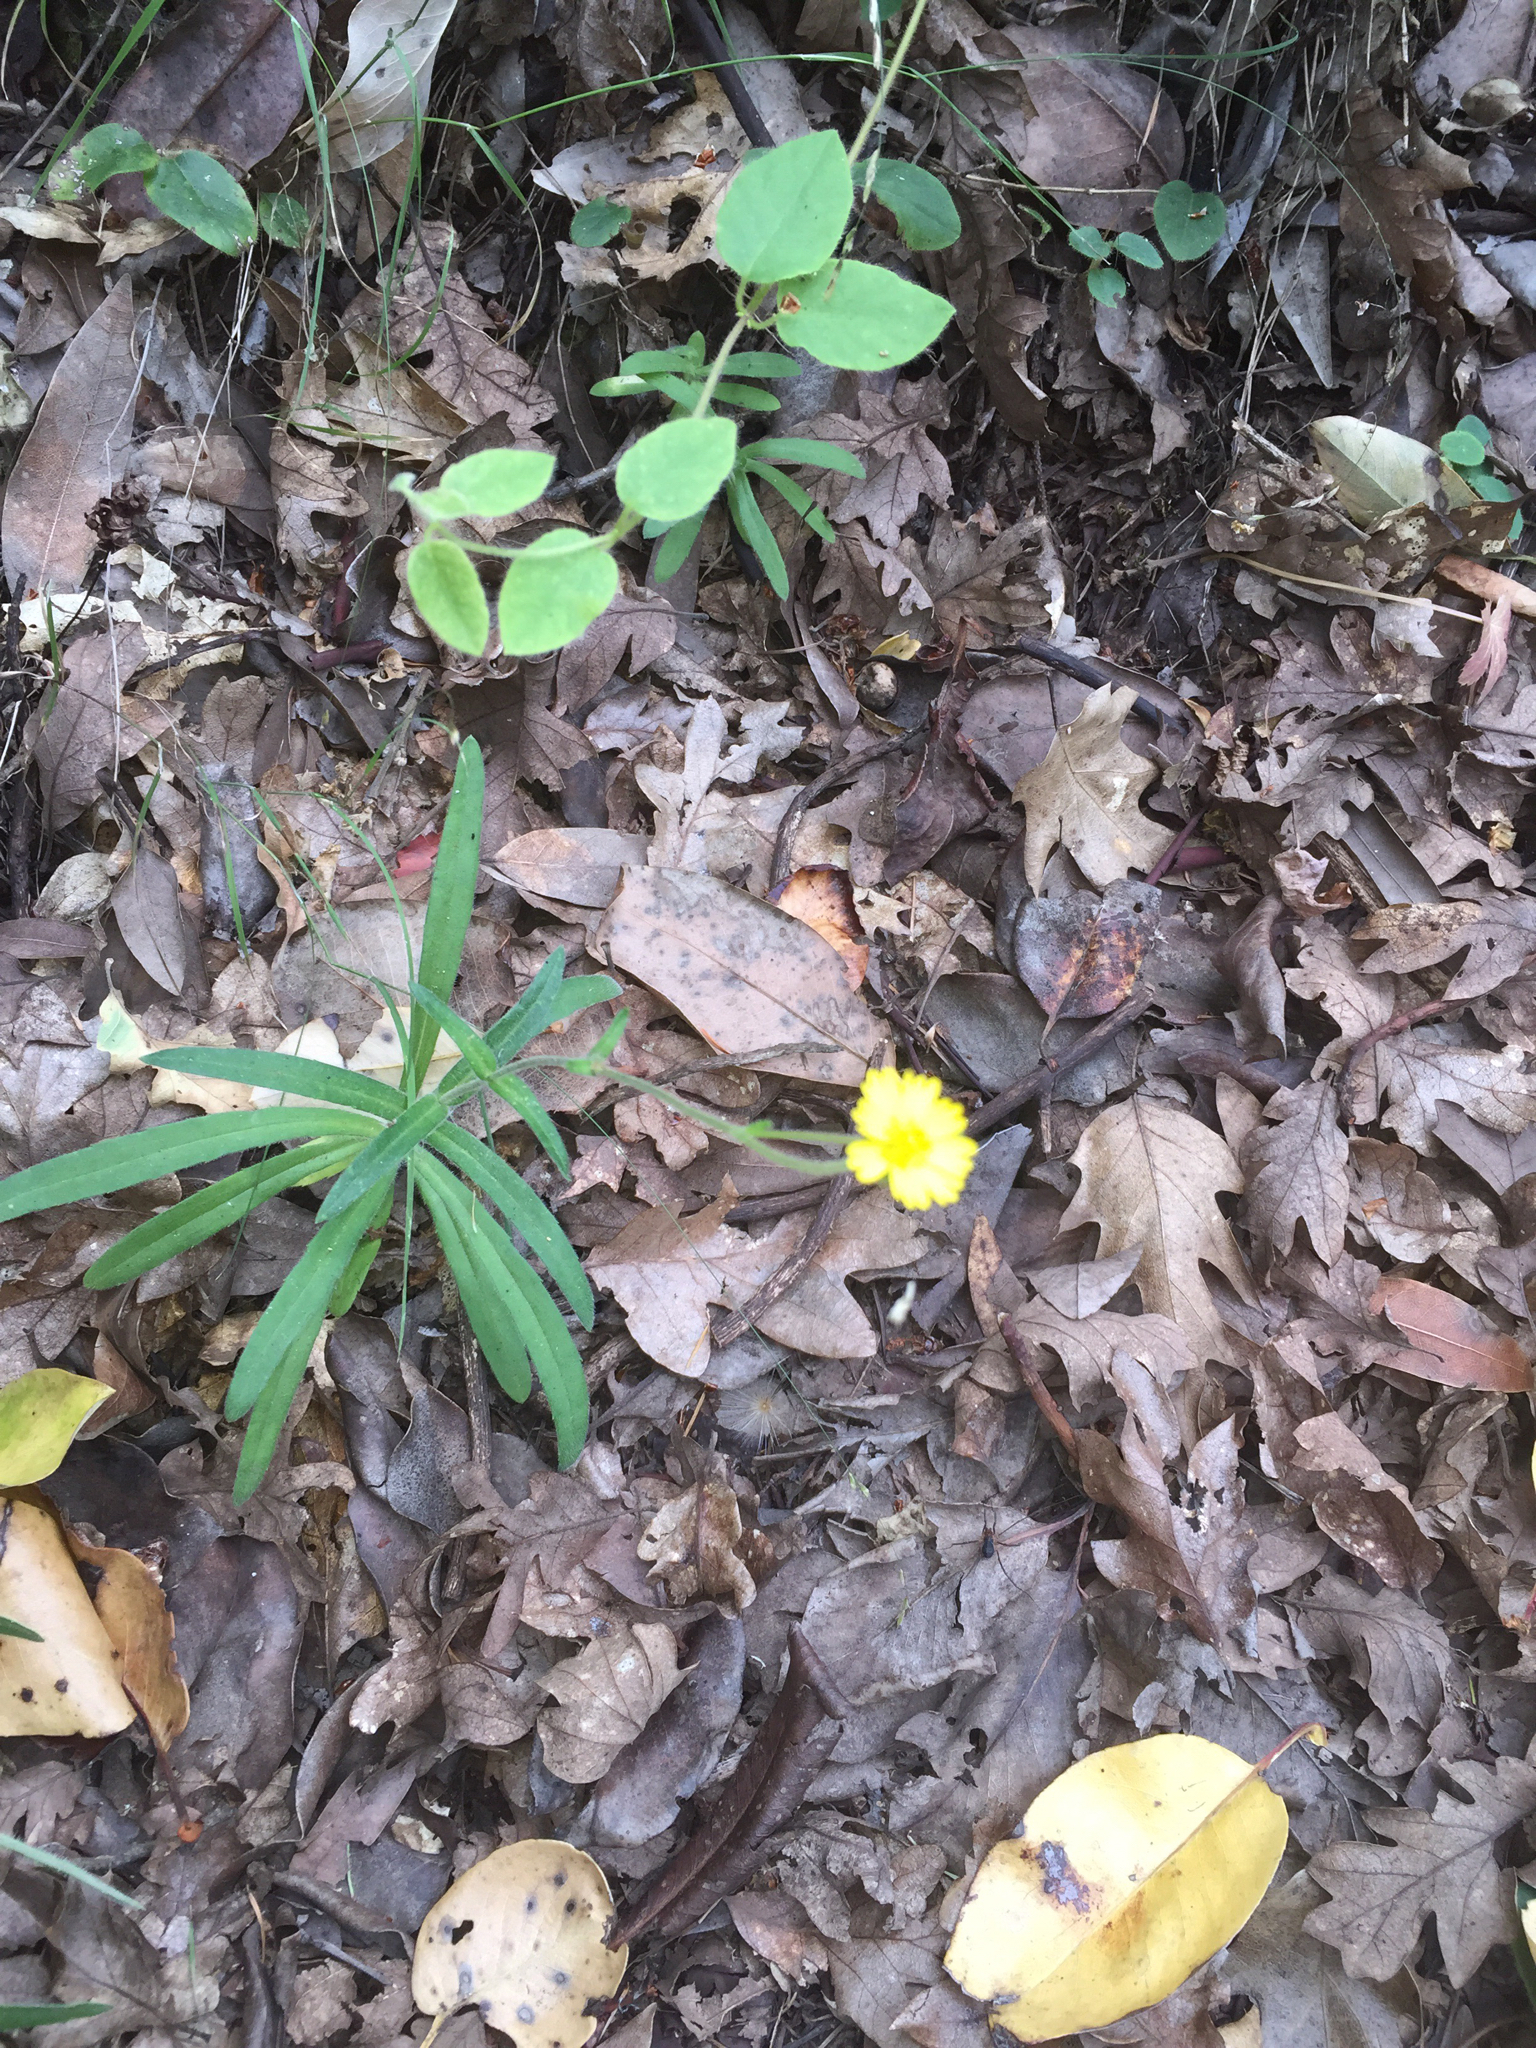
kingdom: Plantae
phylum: Tracheophyta
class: Magnoliopsida
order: Asterales
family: Asteraceae
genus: Anisocarpus
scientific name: Anisocarpus madioides
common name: Woodland madia
